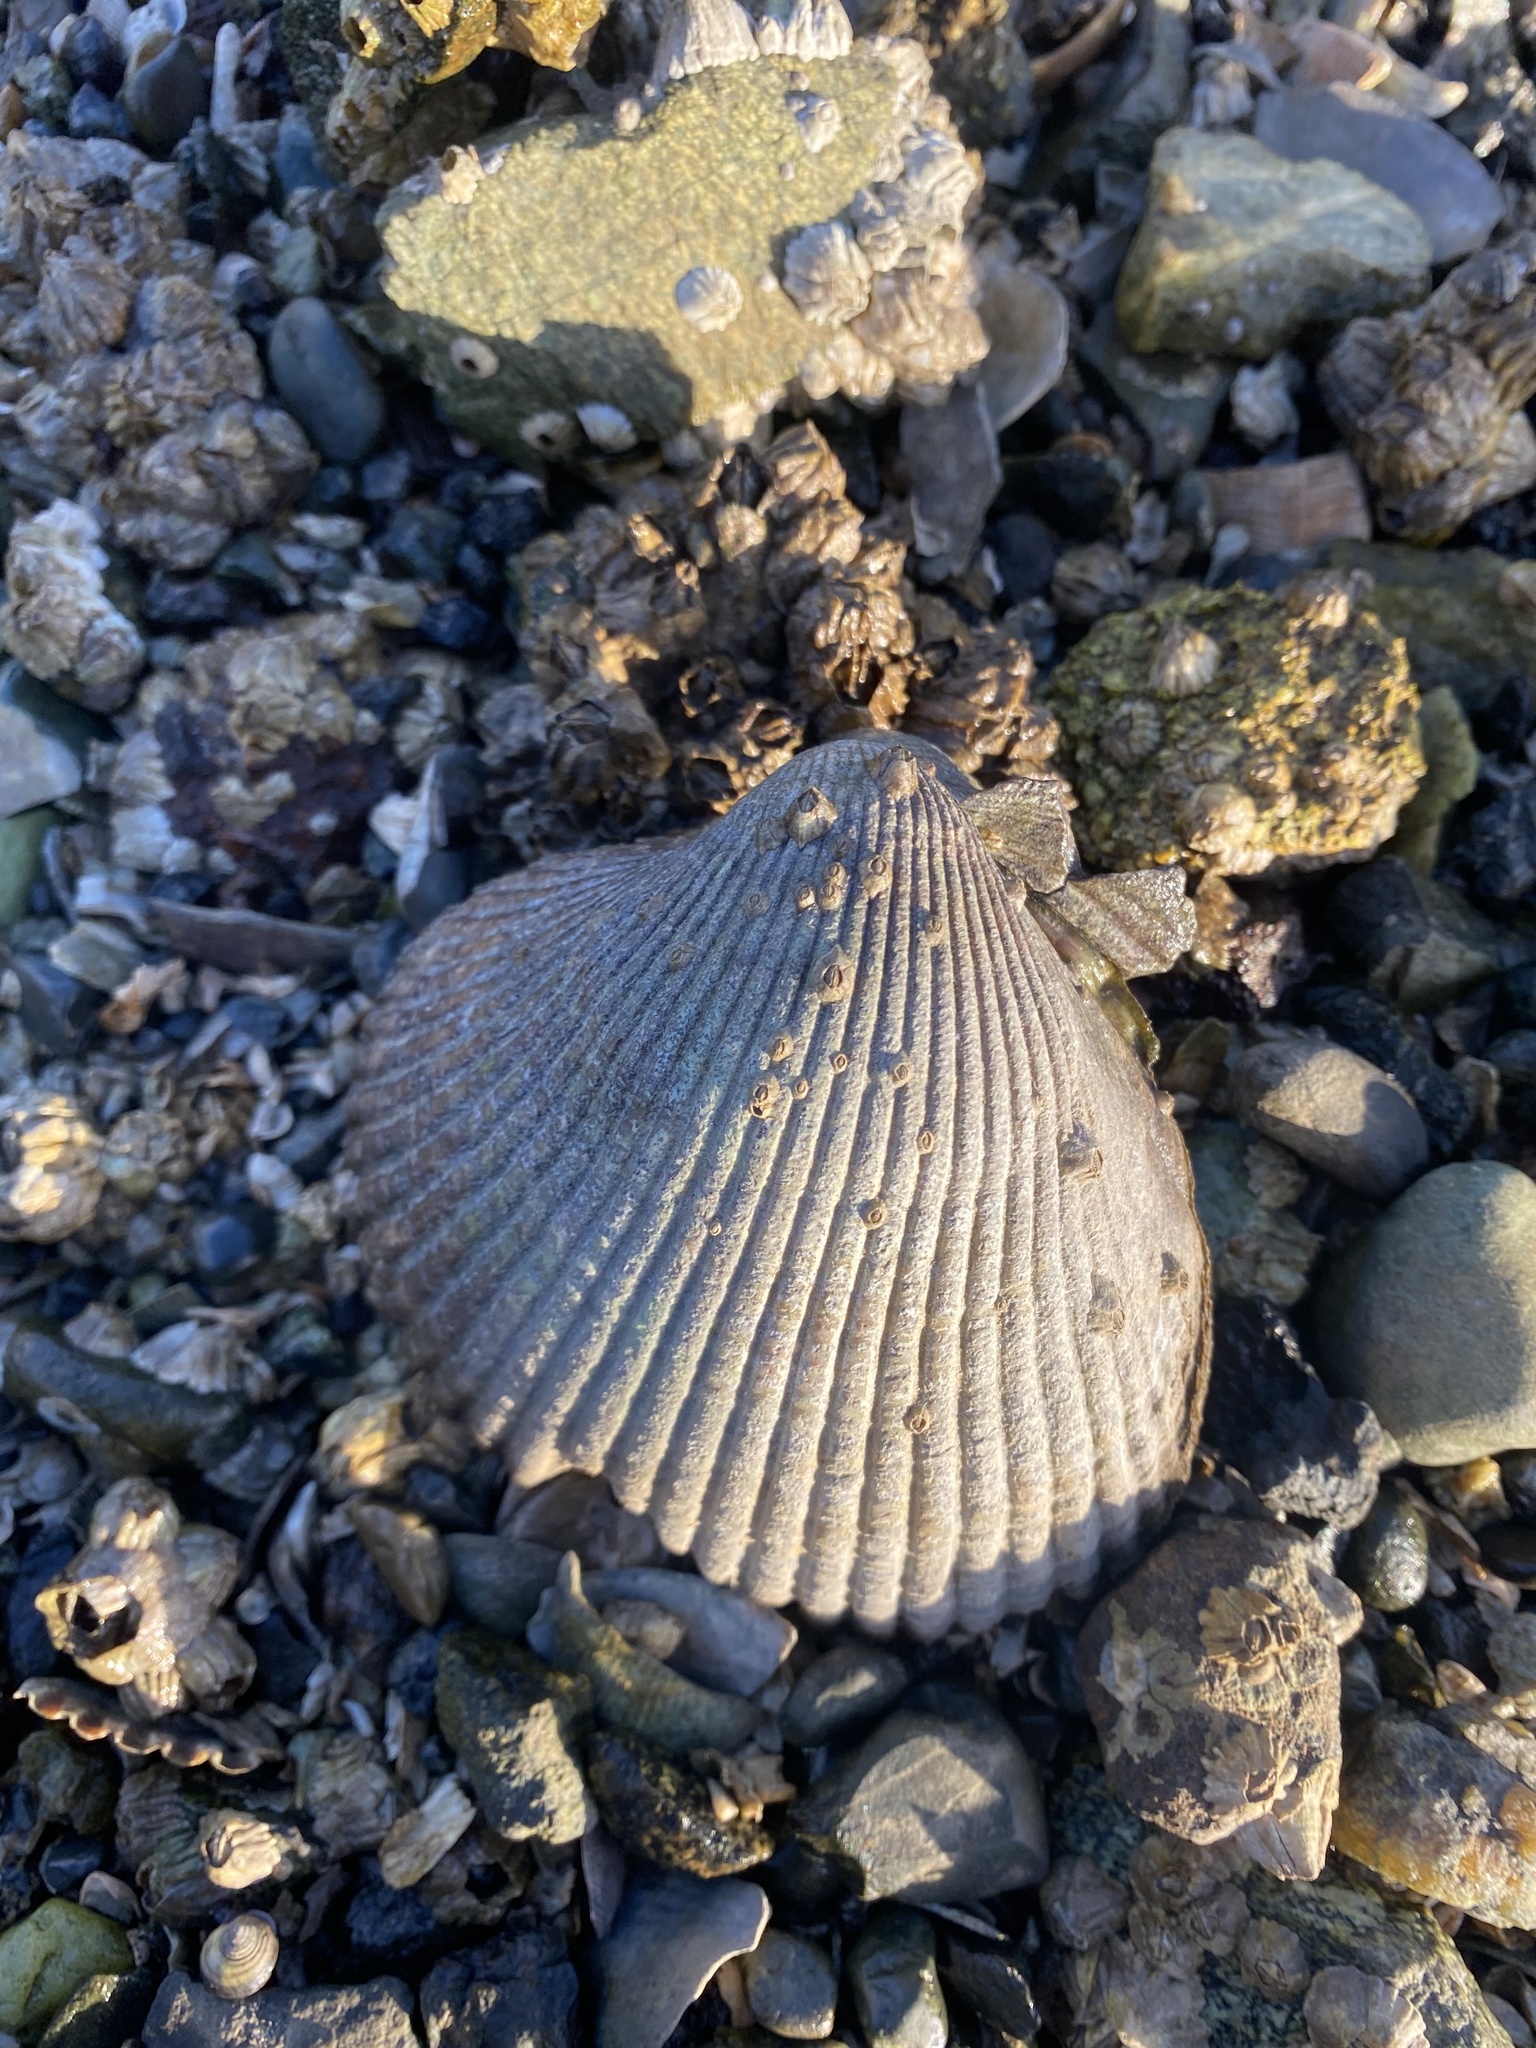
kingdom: Animalia
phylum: Mollusca
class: Bivalvia
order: Cardiida
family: Cardiidae
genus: Clinocardium
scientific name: Clinocardium nuttallii
